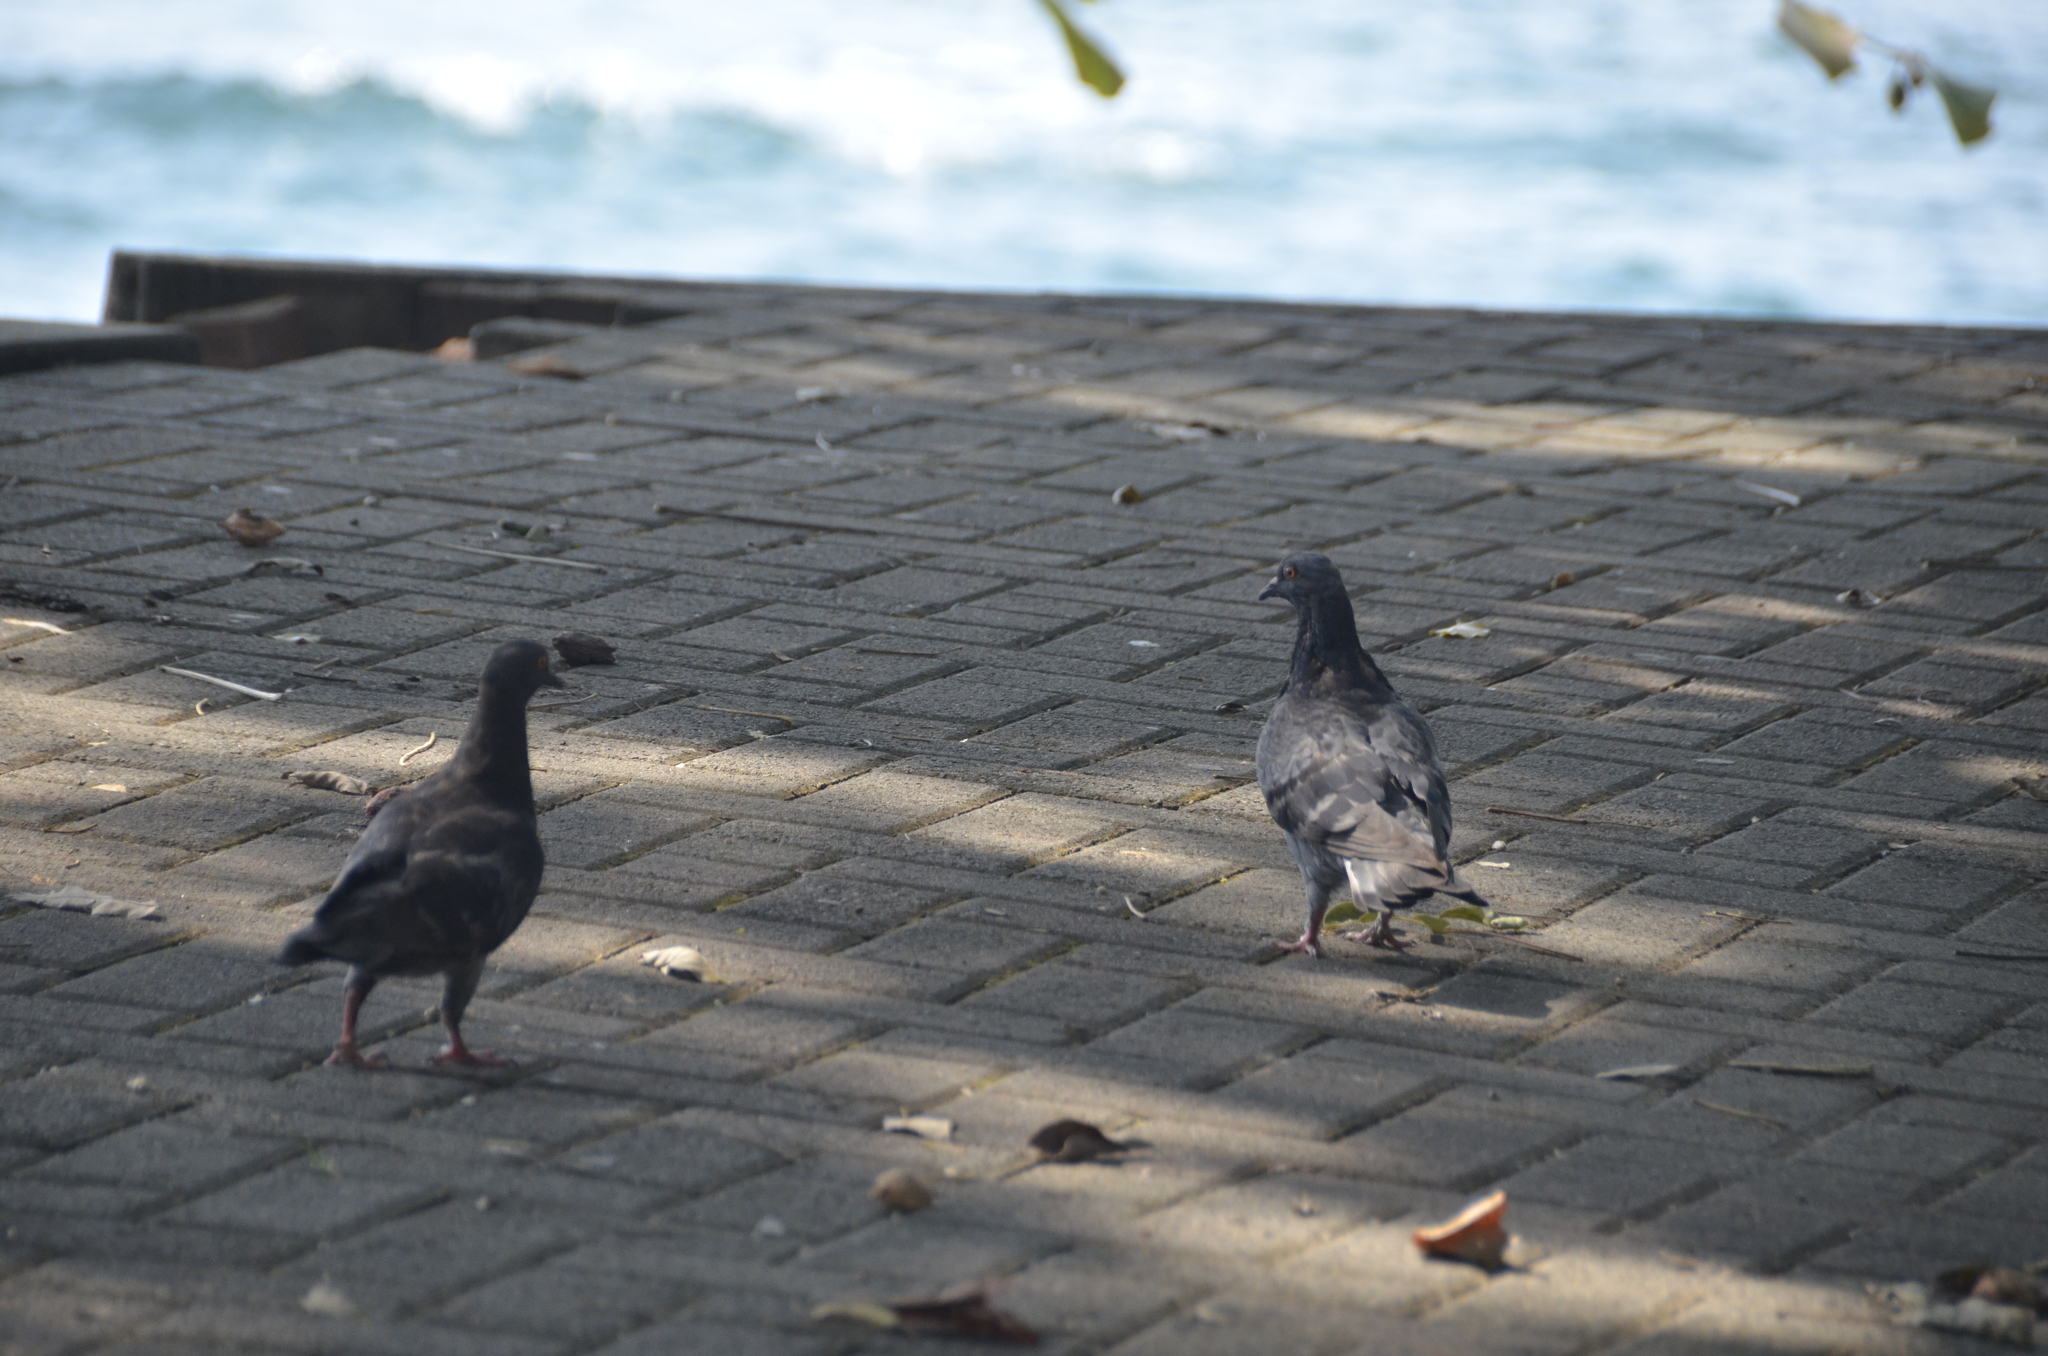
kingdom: Animalia
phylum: Chordata
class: Aves
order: Columbiformes
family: Columbidae
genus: Columba
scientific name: Columba livia
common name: Rock pigeon
